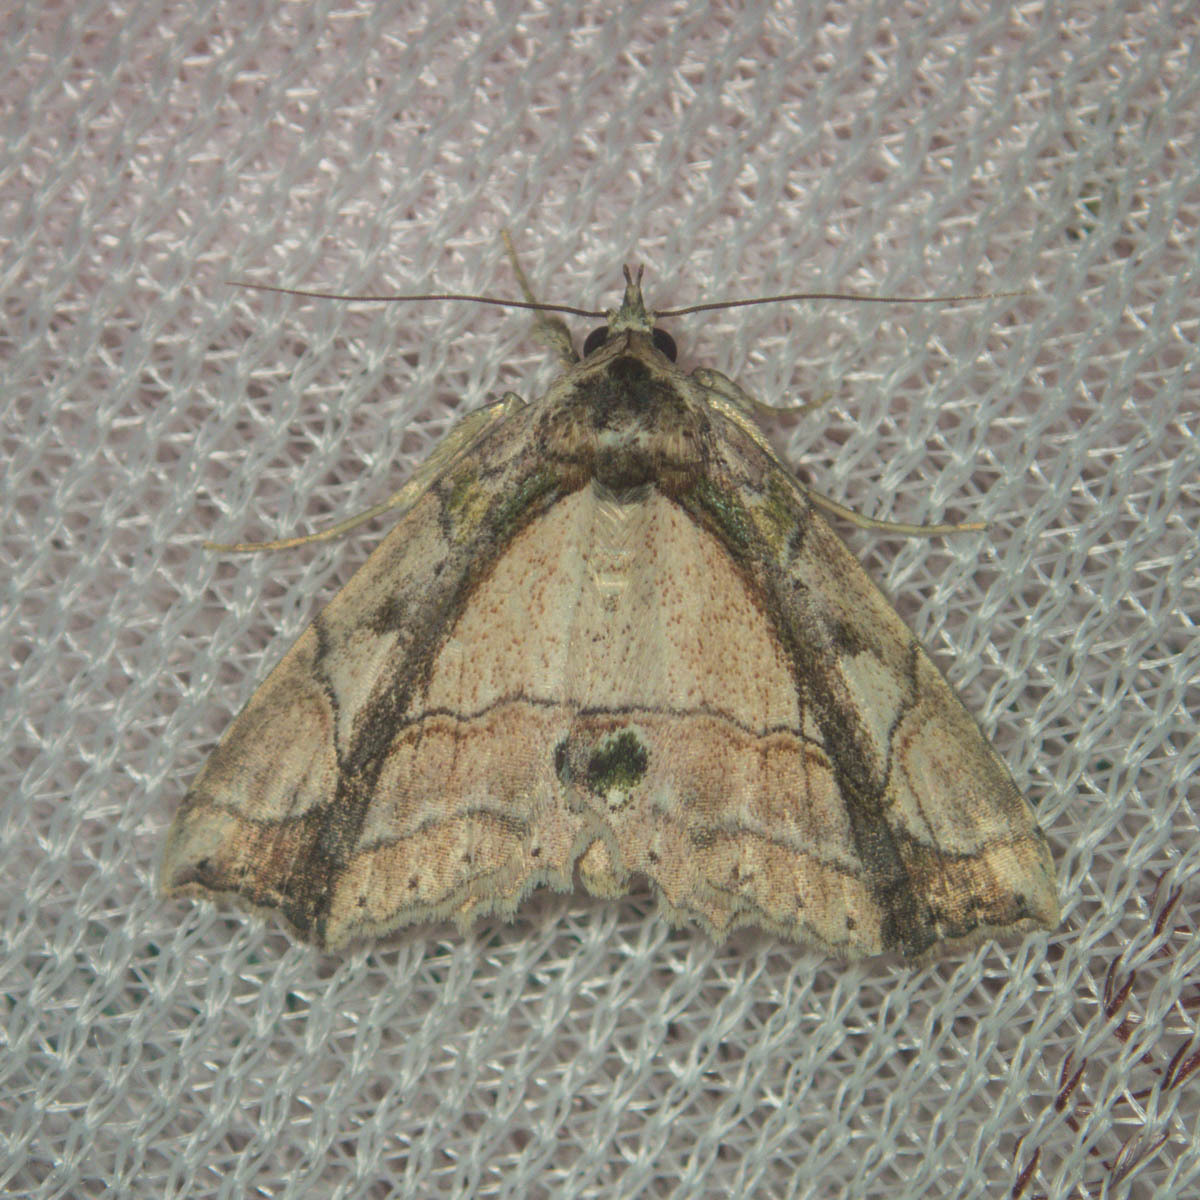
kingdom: Animalia
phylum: Arthropoda
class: Insecta
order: Lepidoptera
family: Erebidae
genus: Tamba
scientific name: Tamba lala
